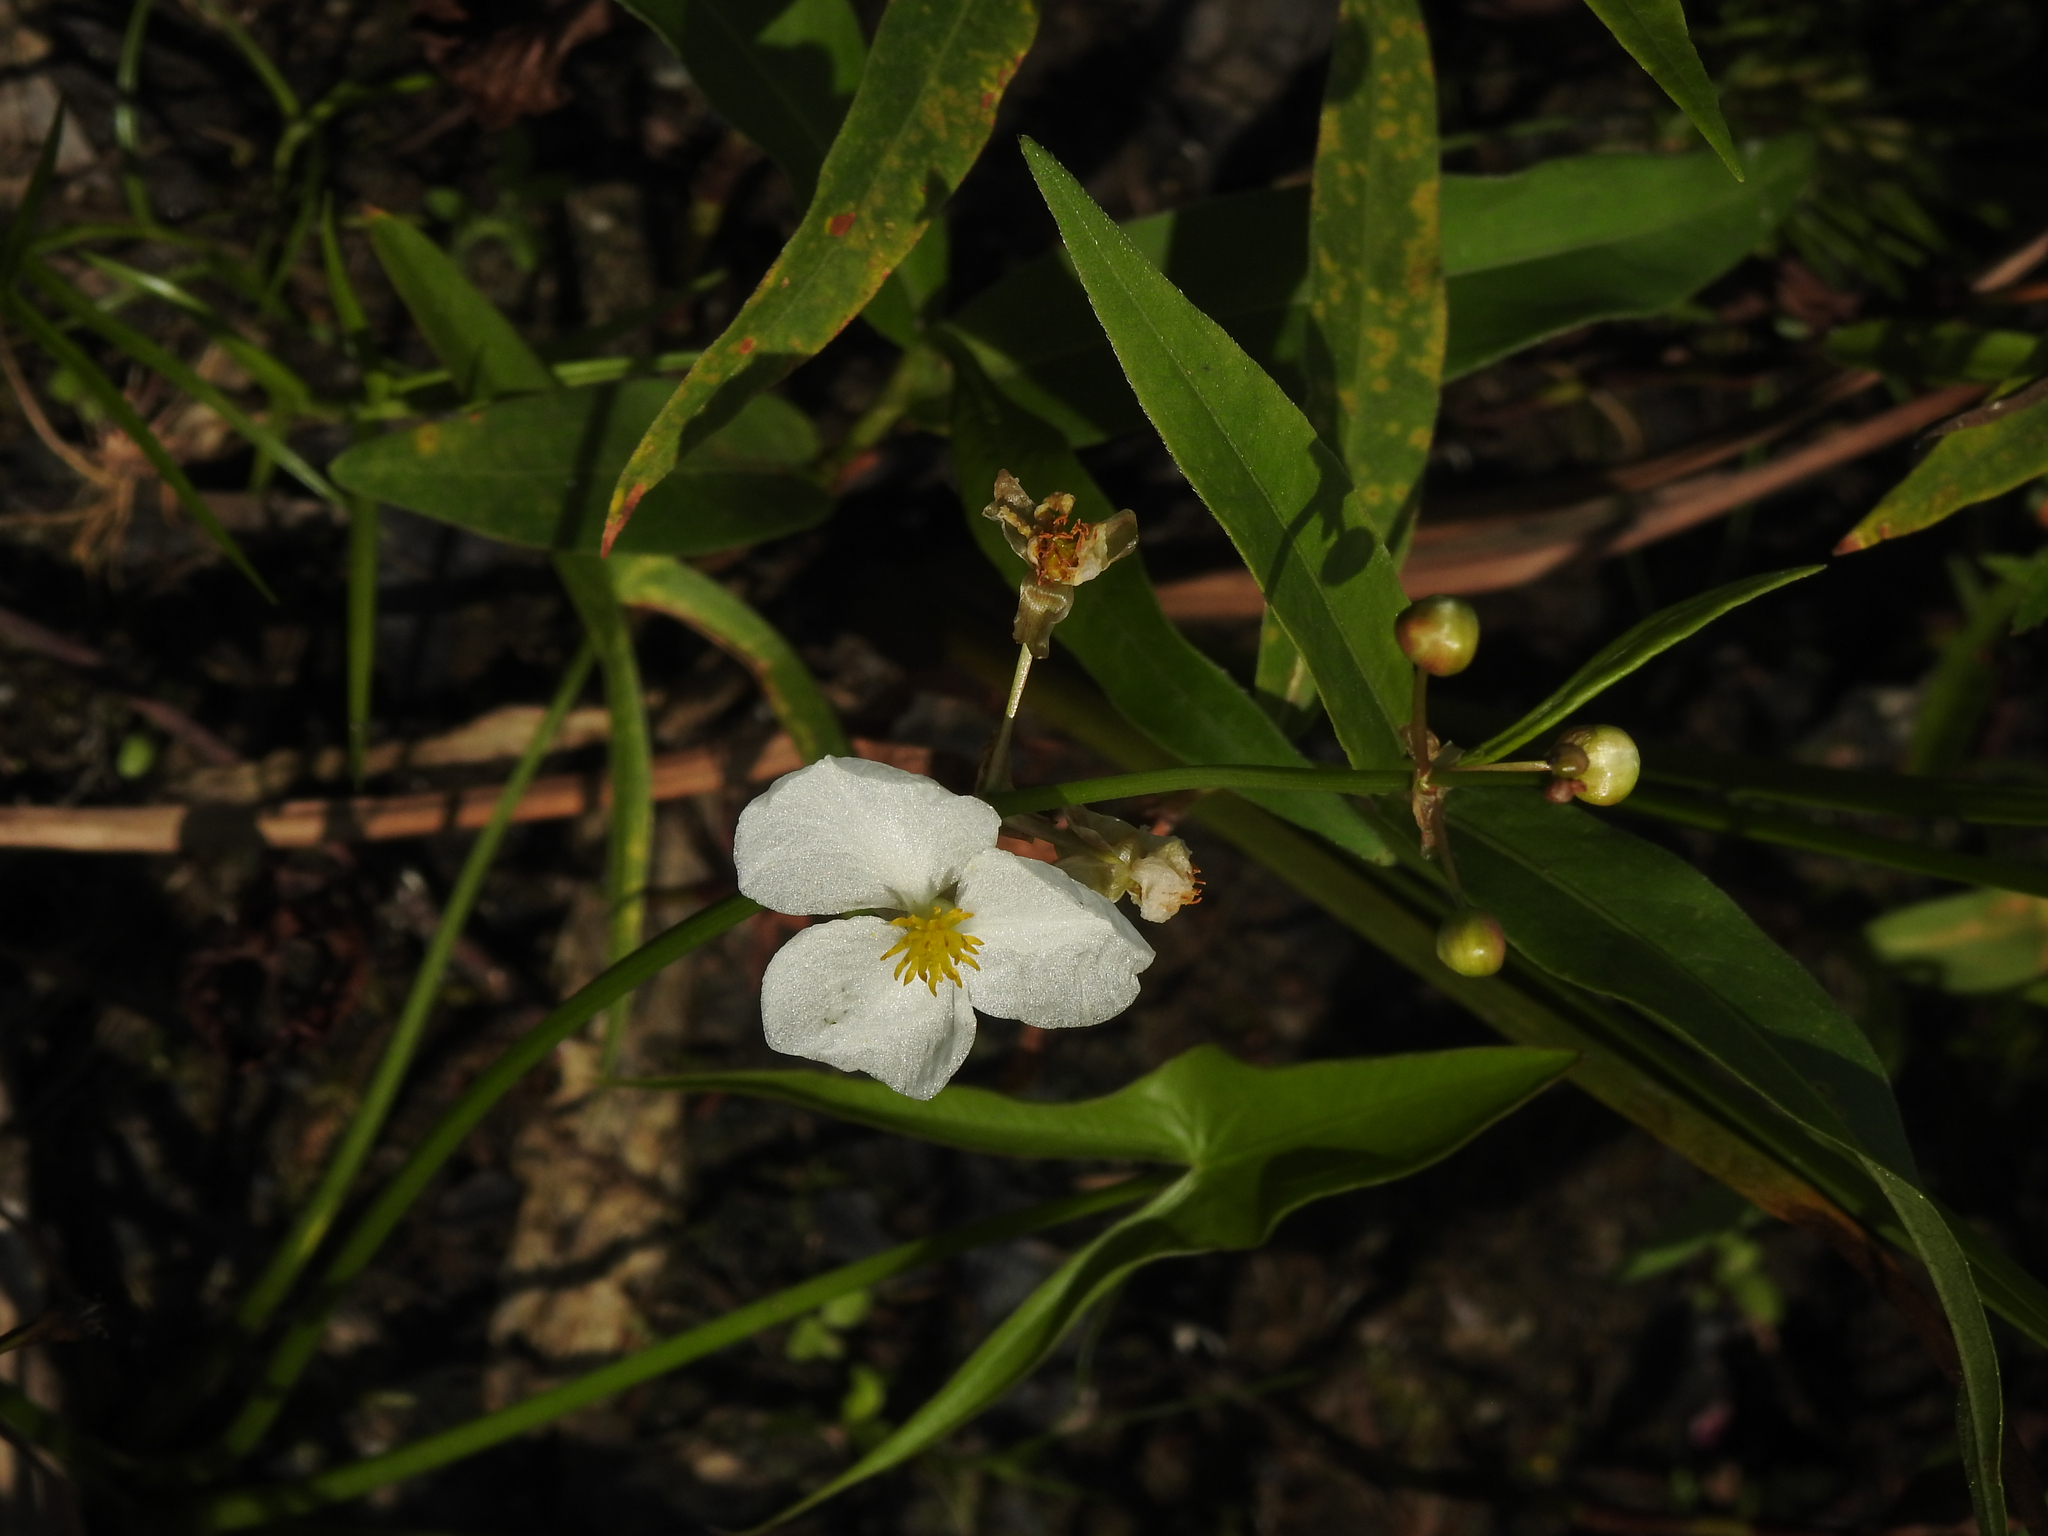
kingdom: Plantae
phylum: Tracheophyta
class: Liliopsida
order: Alismatales
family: Alismataceae
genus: Sagittaria
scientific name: Sagittaria latifolia
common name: Duck-potato
